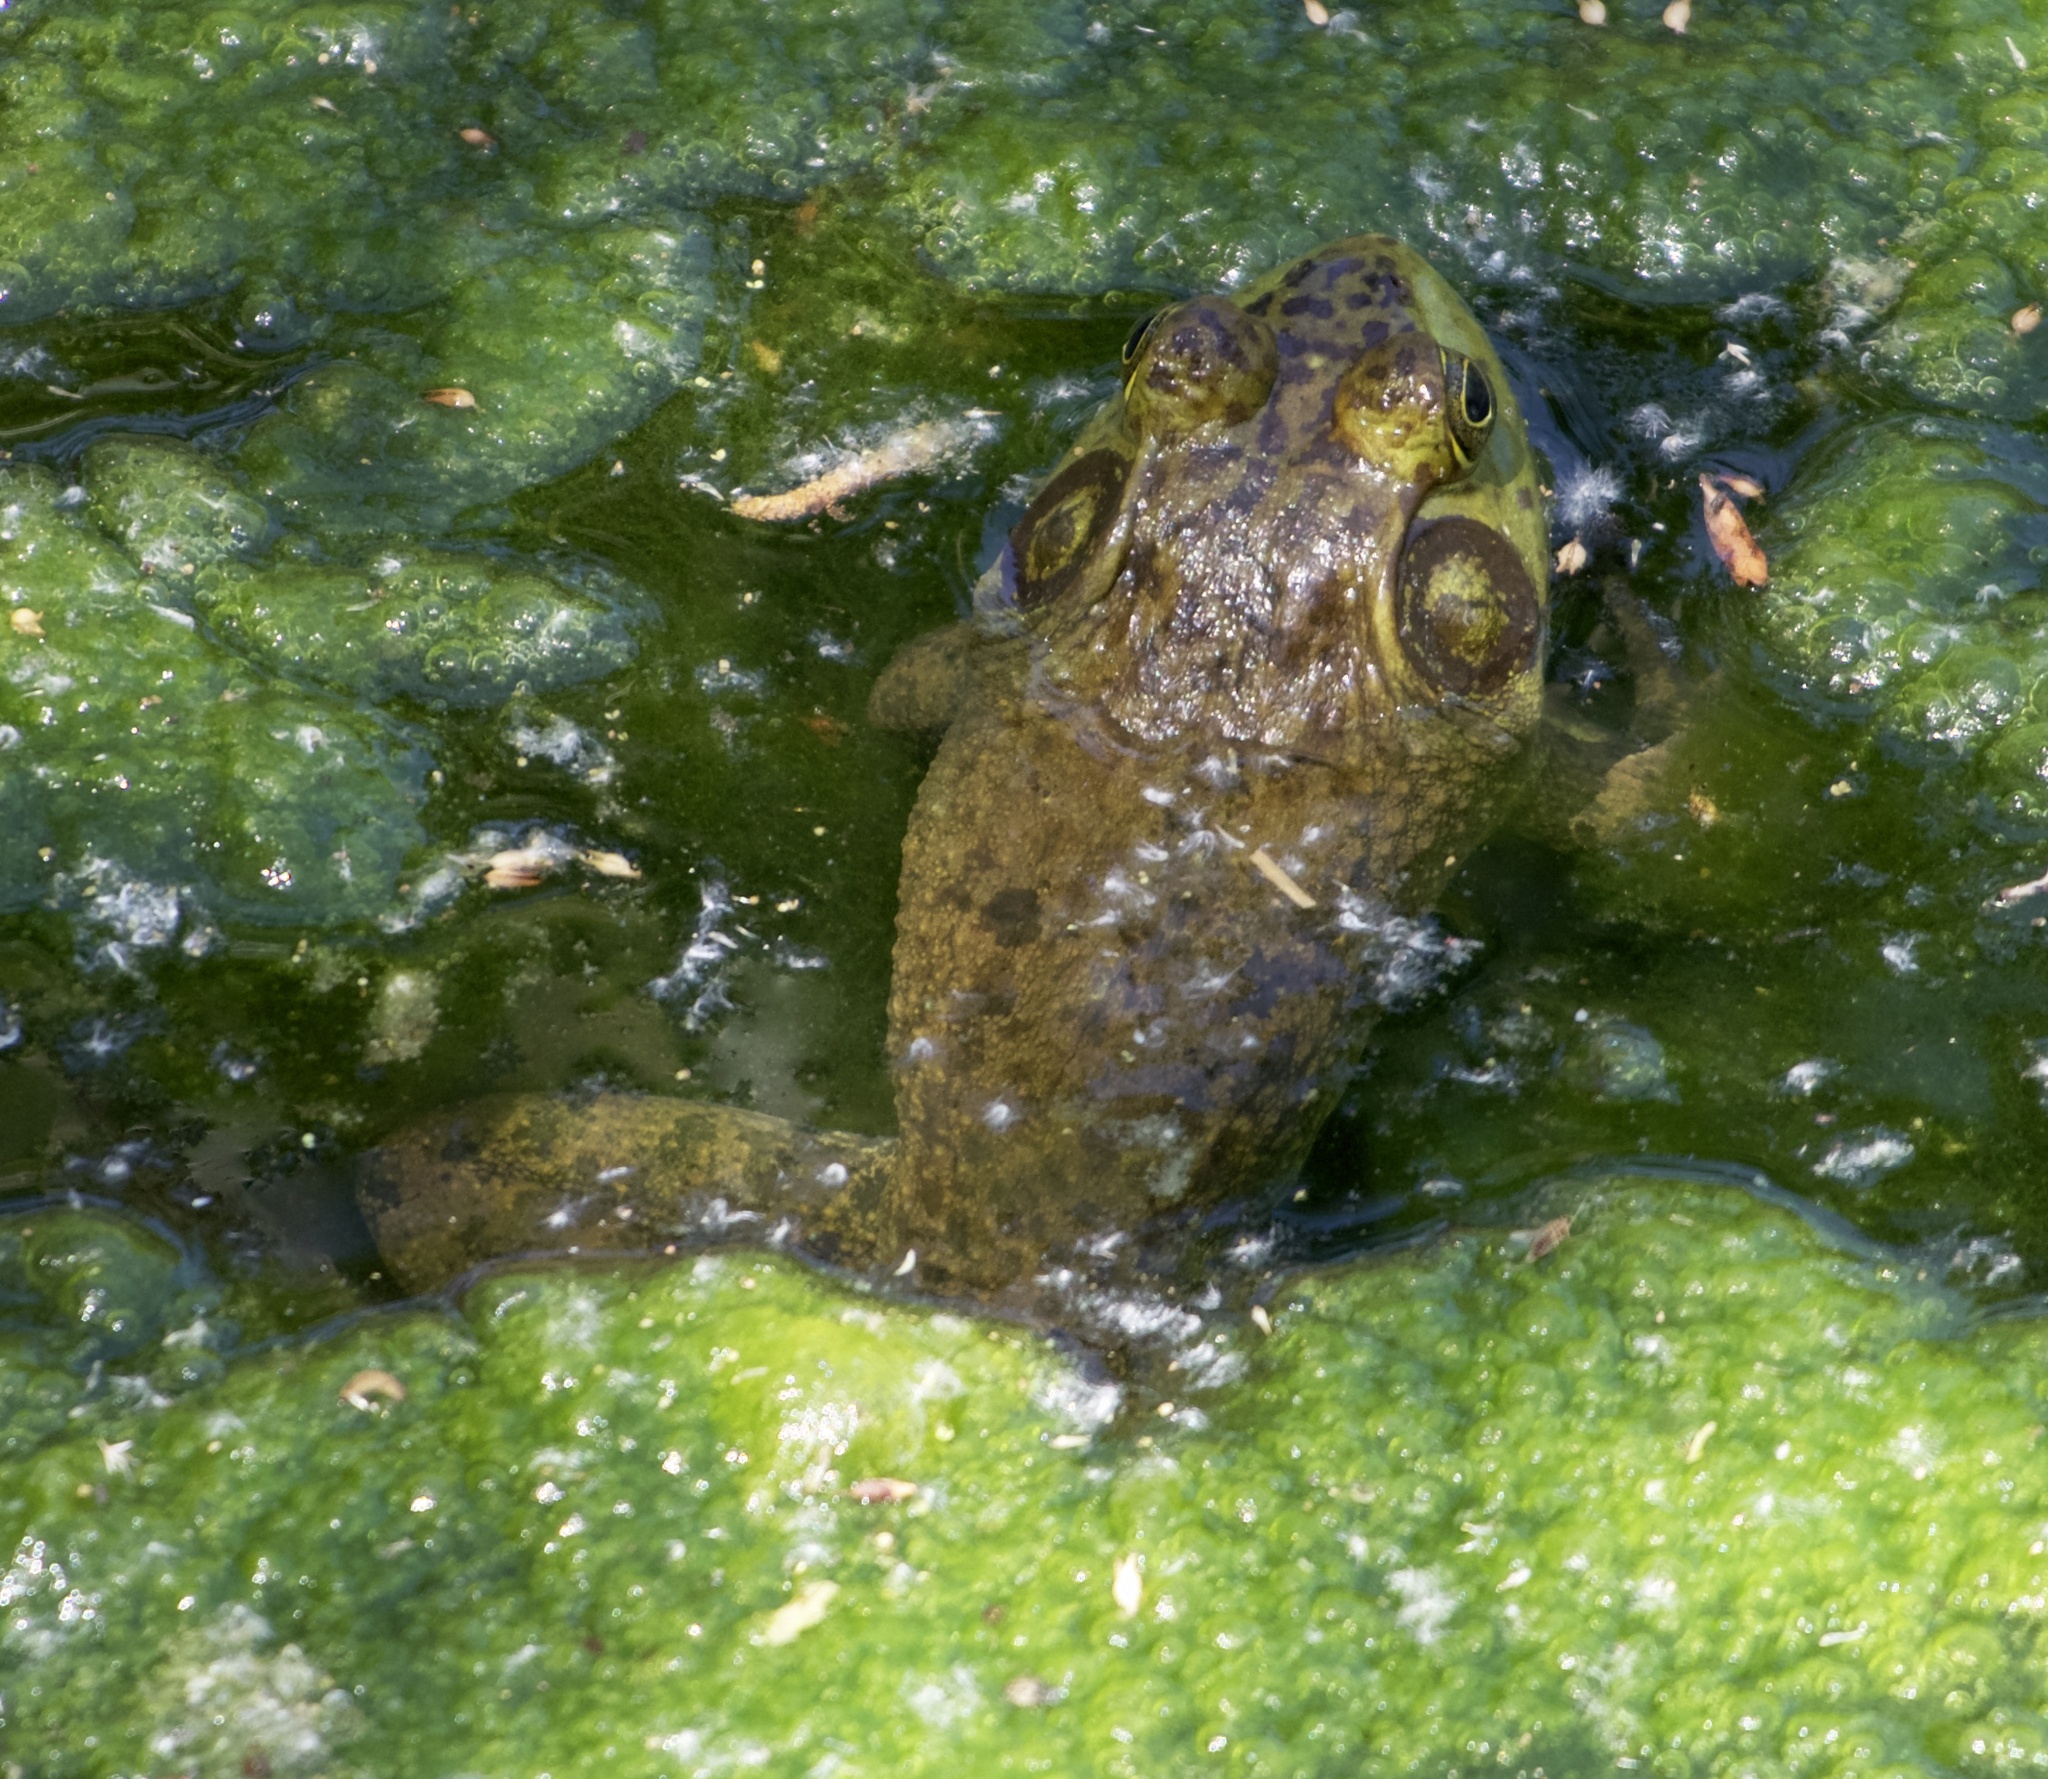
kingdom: Animalia
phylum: Chordata
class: Amphibia
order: Anura
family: Ranidae
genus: Lithobates
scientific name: Lithobates catesbeianus
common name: American bullfrog
